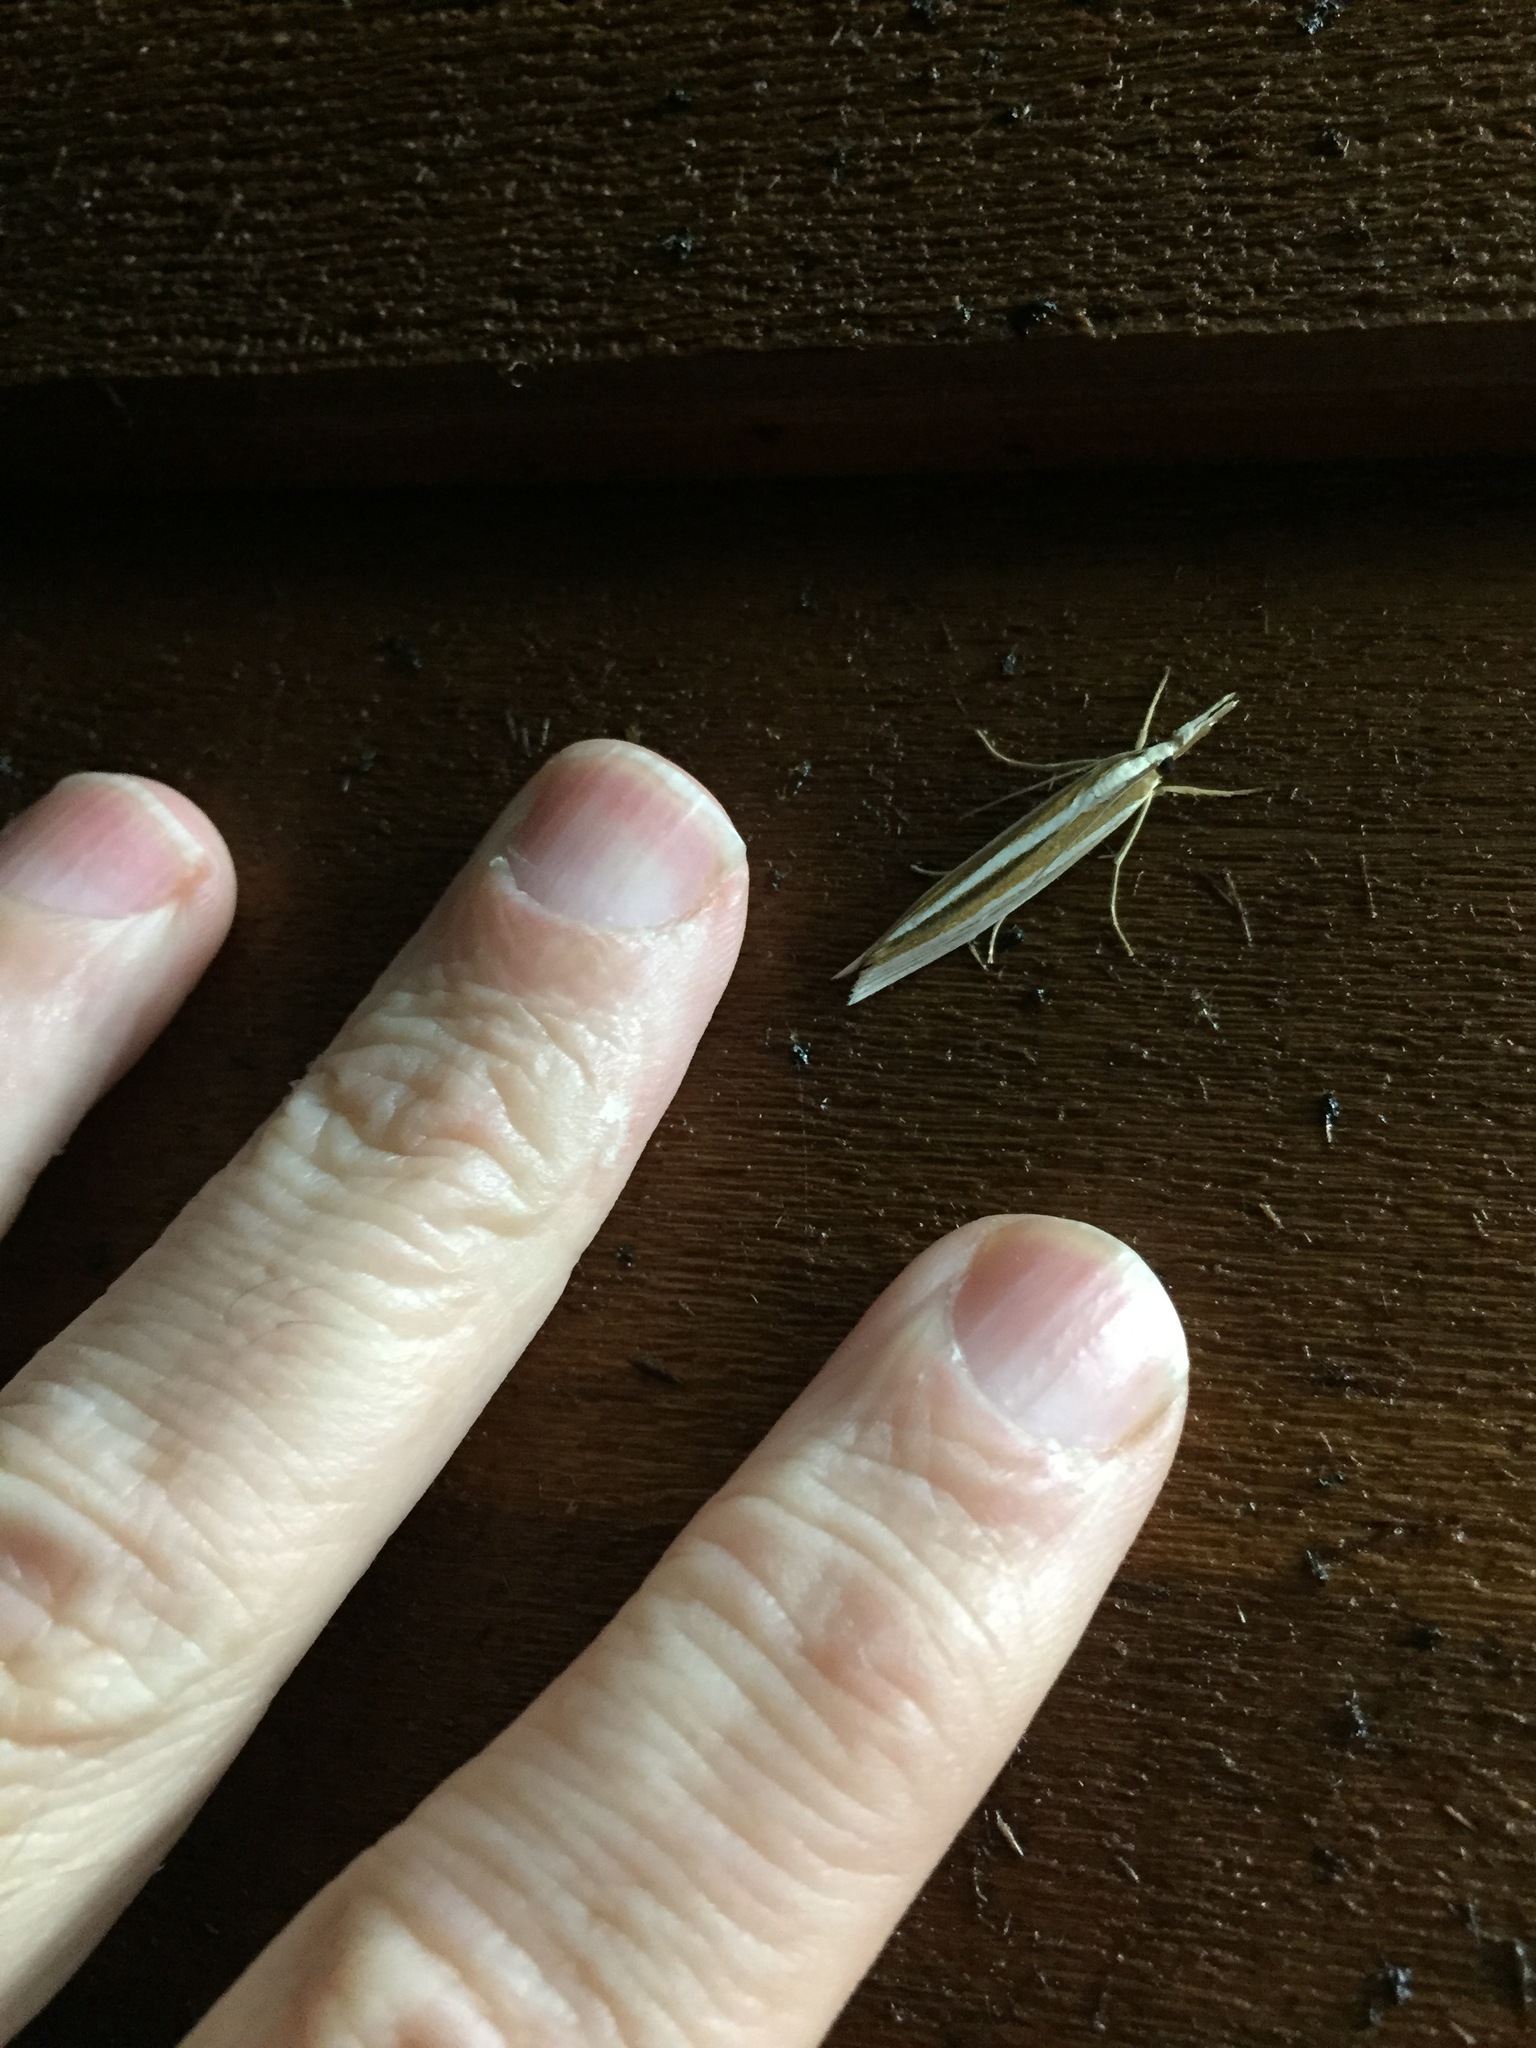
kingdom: Animalia
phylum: Arthropoda
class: Insecta
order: Lepidoptera
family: Crambidae
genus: Orocrambus
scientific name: Orocrambus angustipennis
